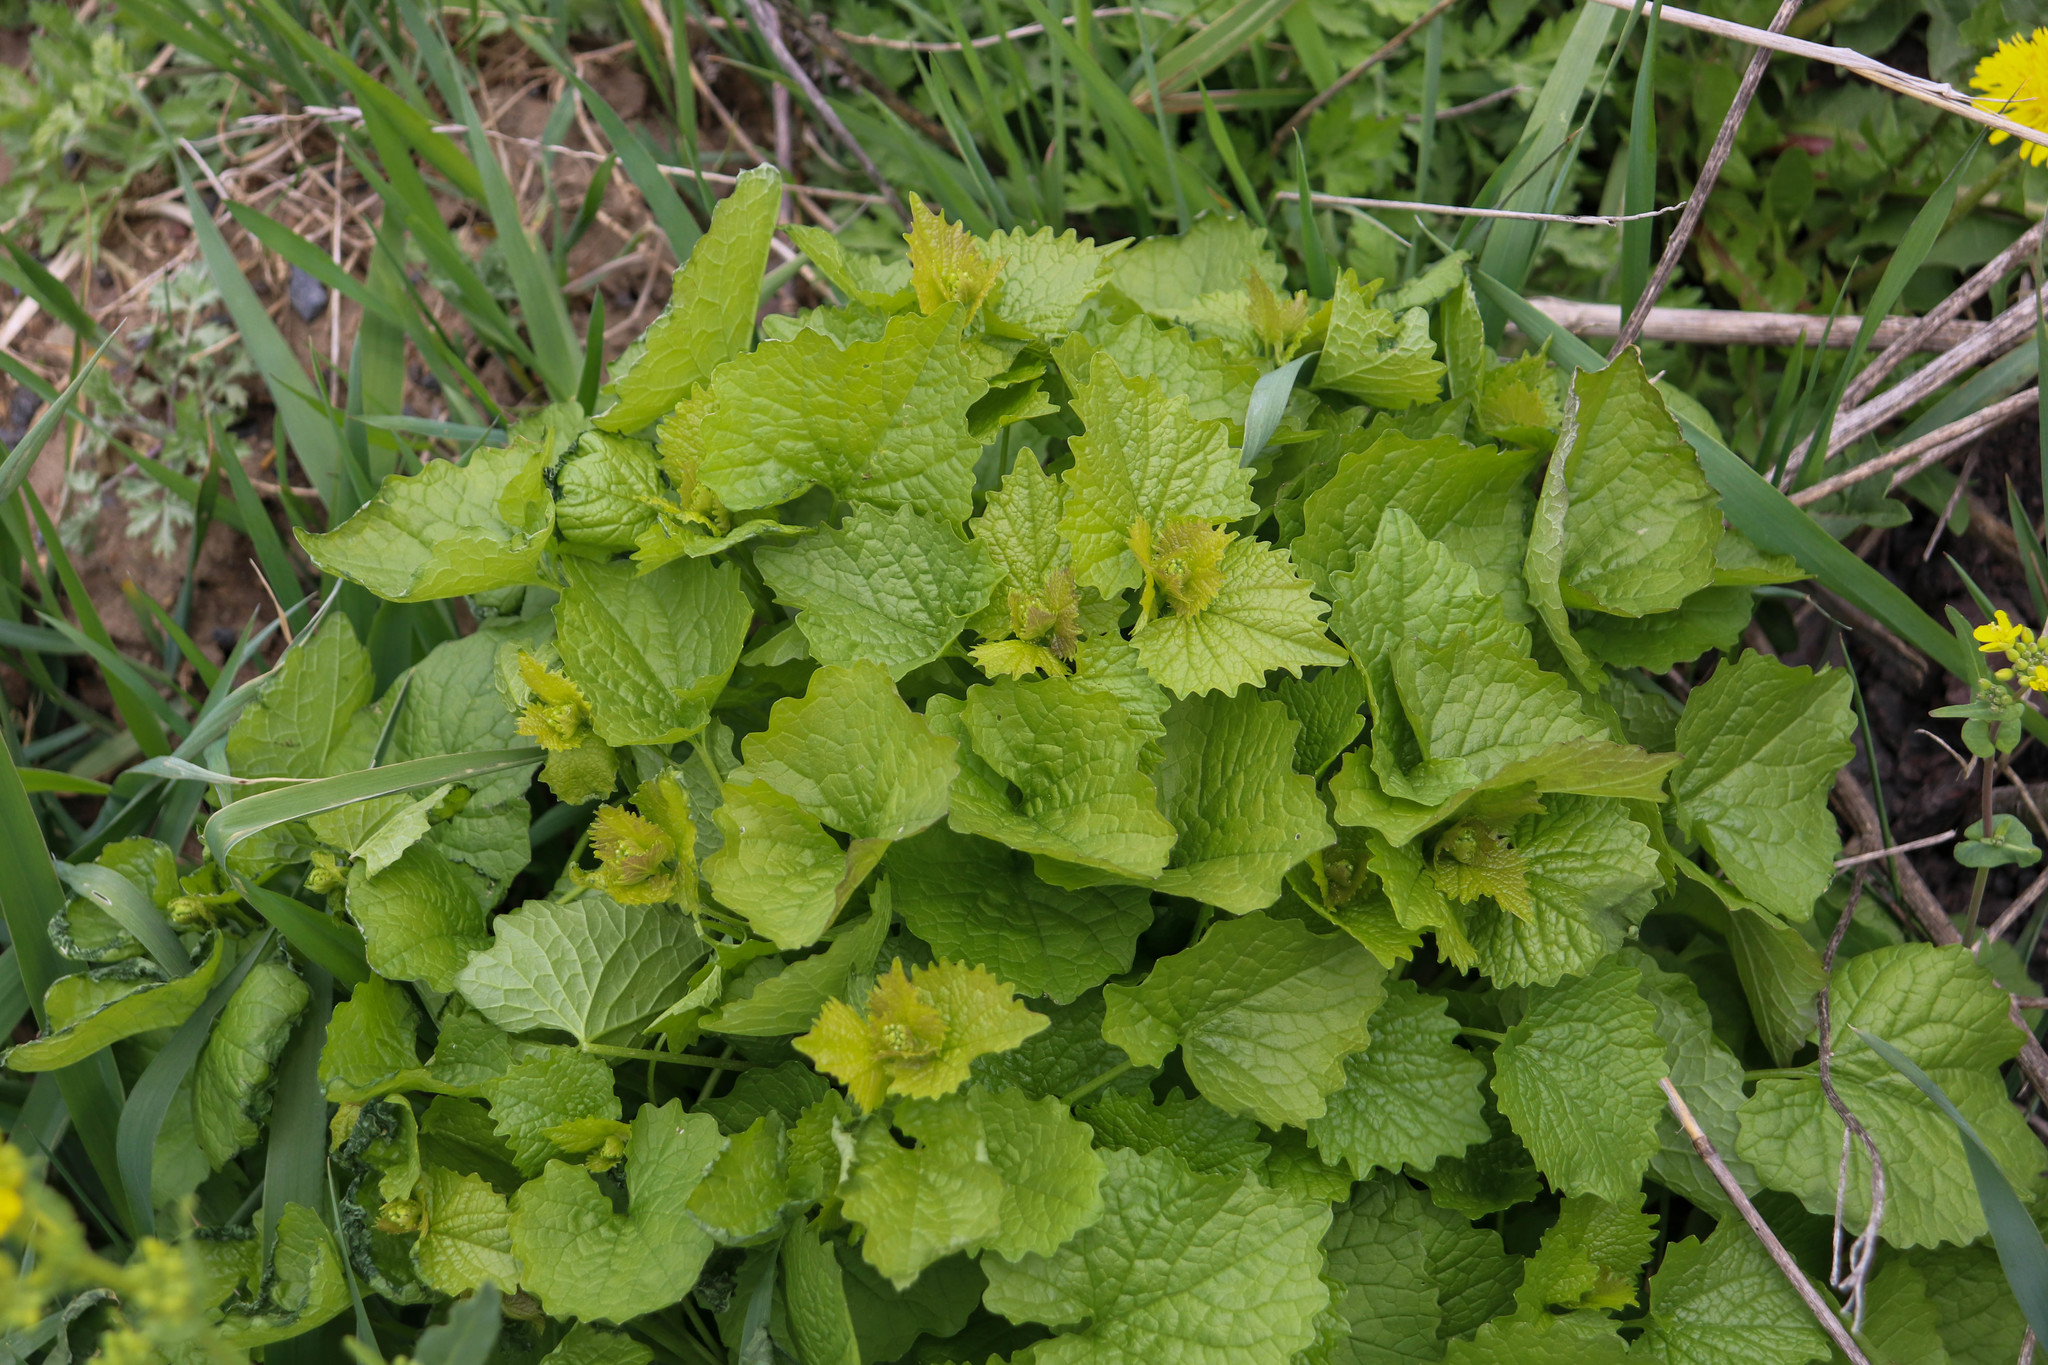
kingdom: Plantae
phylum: Tracheophyta
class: Magnoliopsida
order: Brassicales
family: Brassicaceae
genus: Alliaria
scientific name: Alliaria petiolata
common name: Garlic mustard
